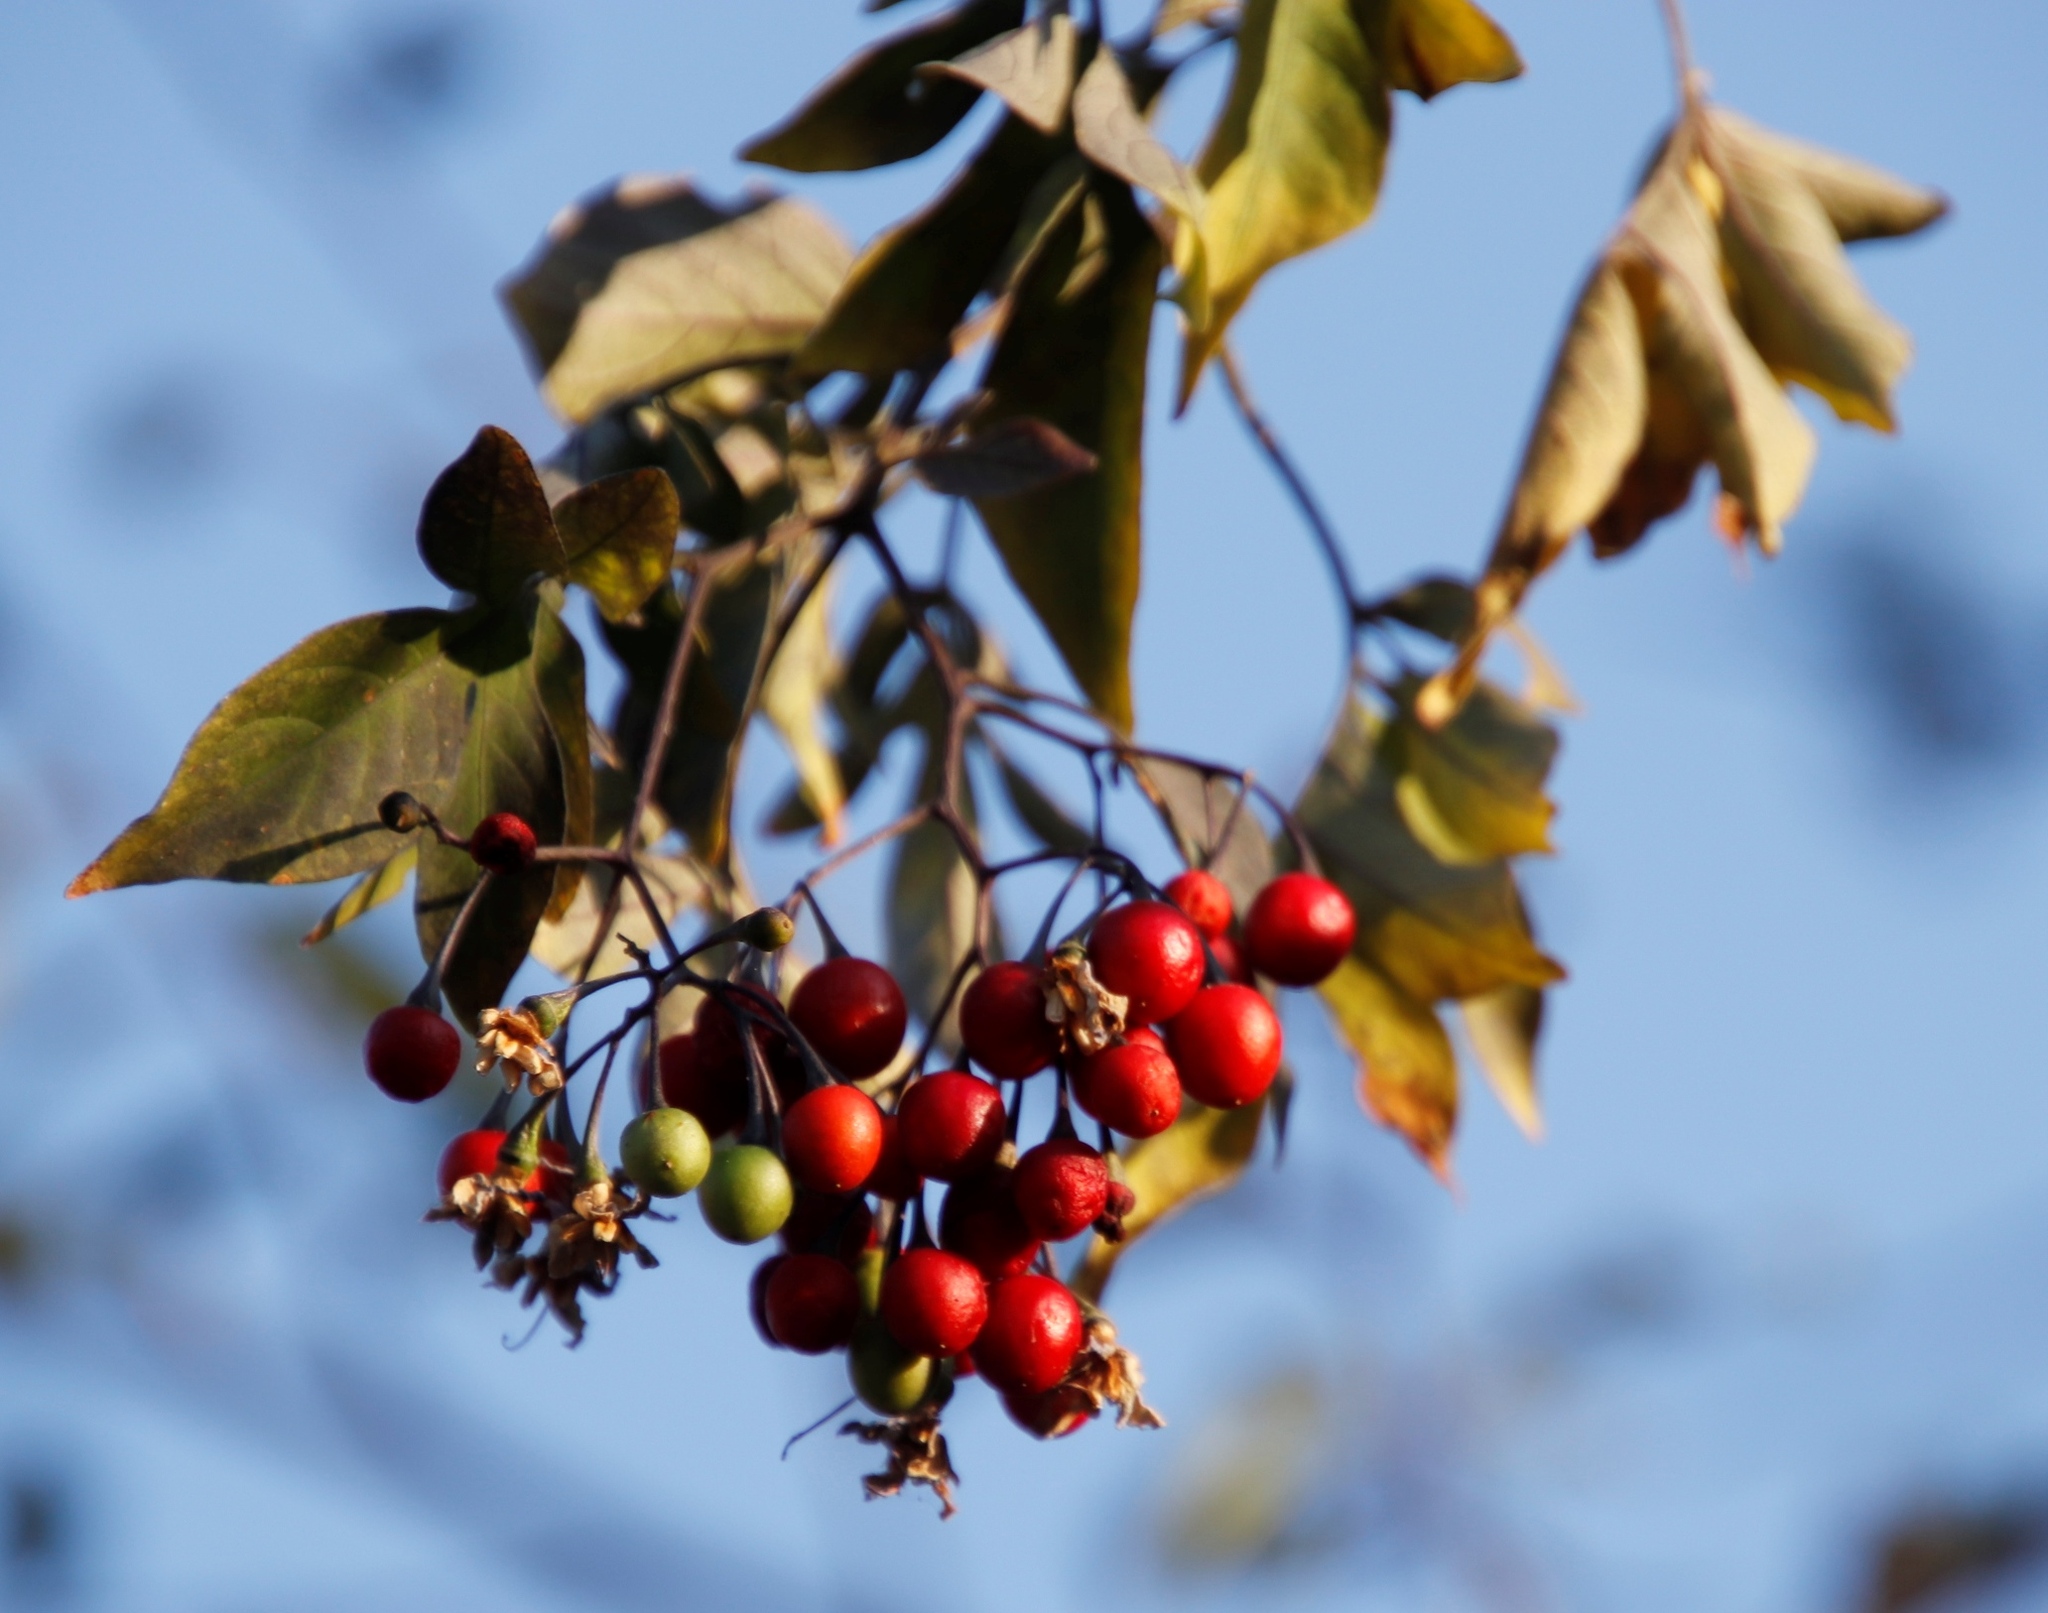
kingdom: Plantae
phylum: Tracheophyta
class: Magnoliopsida
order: Solanales
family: Solanaceae
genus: Solanum
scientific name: Solanum seaforthianum
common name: Brazilian nightshade
